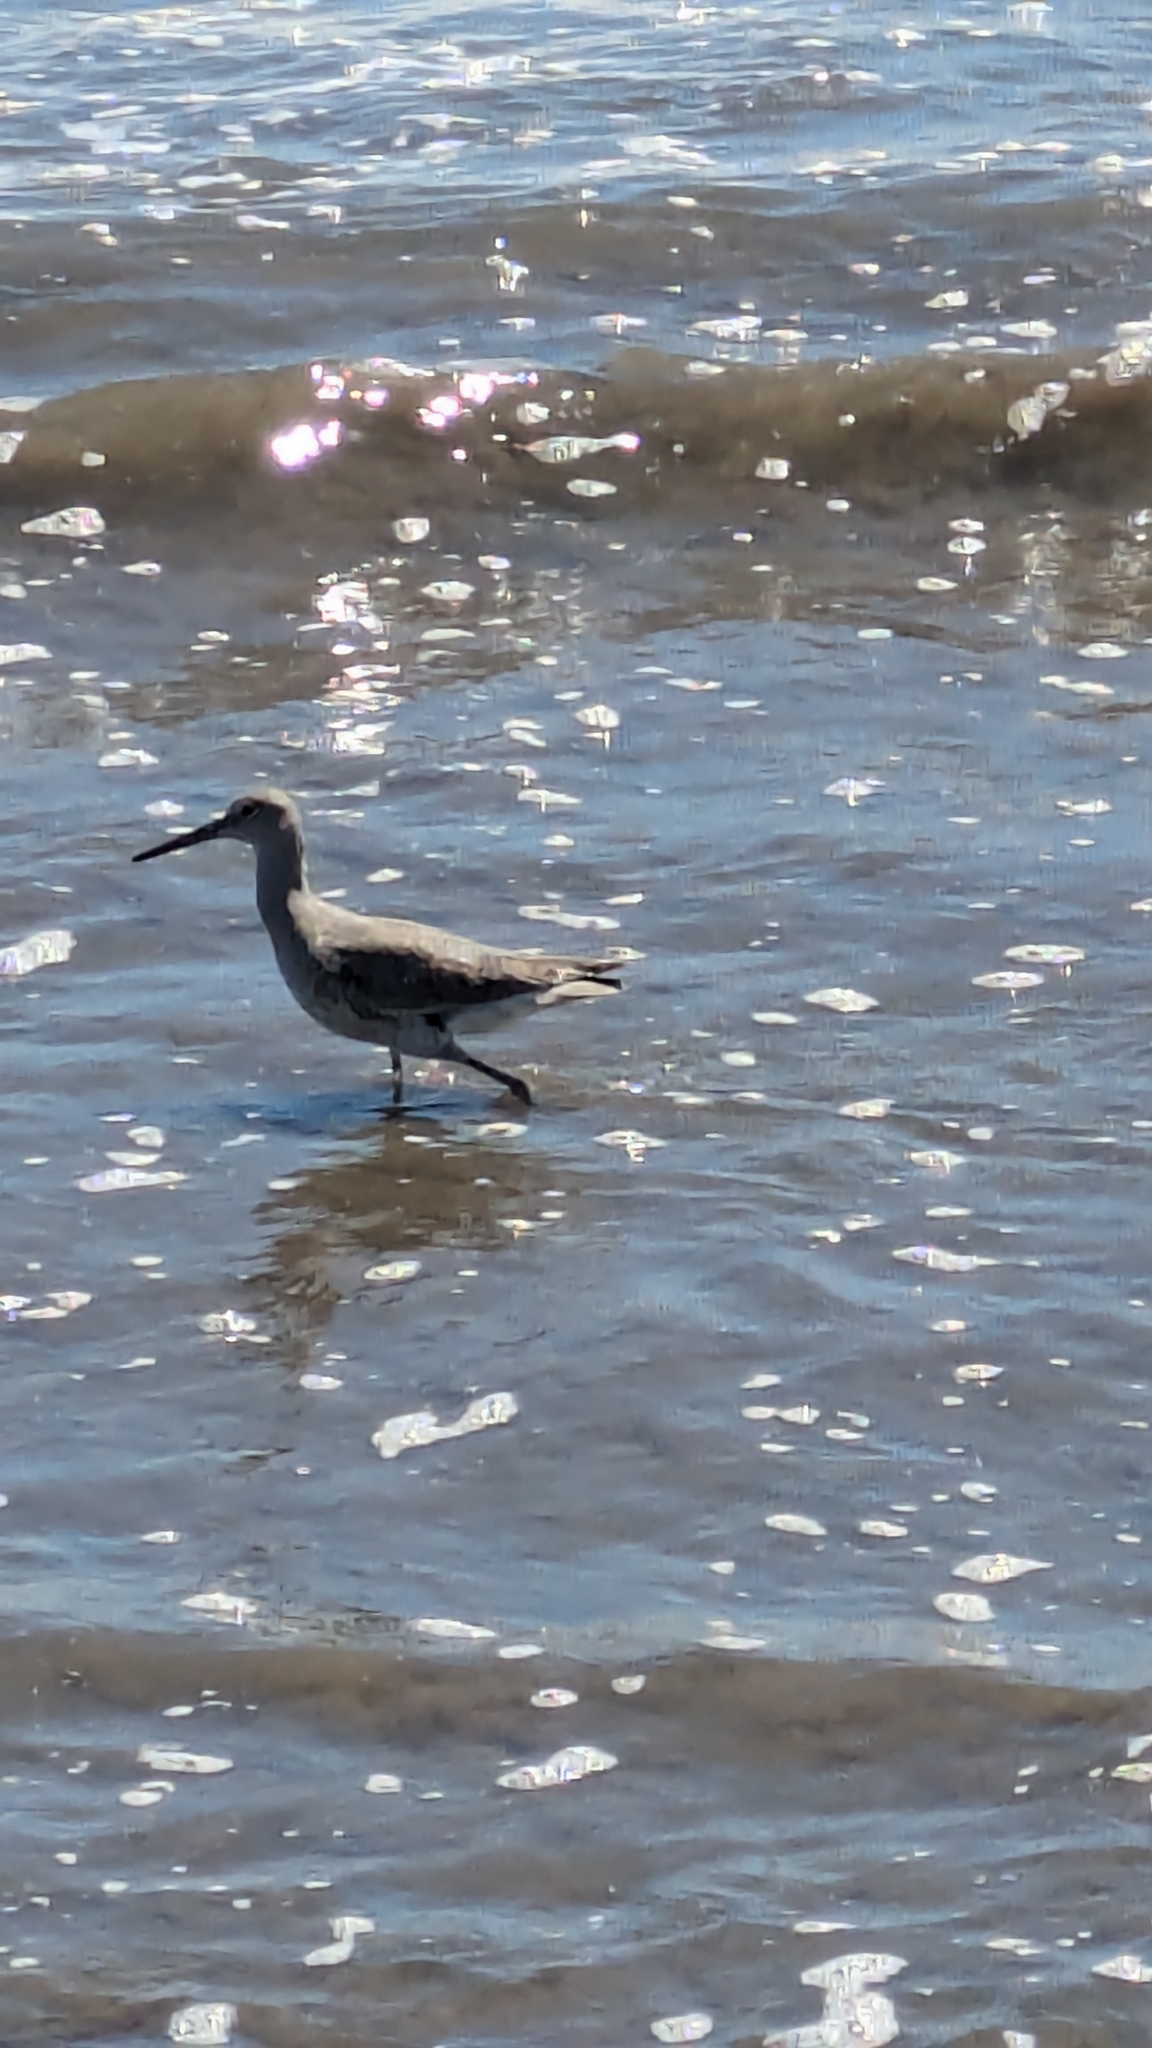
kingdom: Animalia
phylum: Chordata
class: Aves
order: Charadriiformes
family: Scolopacidae
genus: Tringa
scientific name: Tringa semipalmata
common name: Willet
